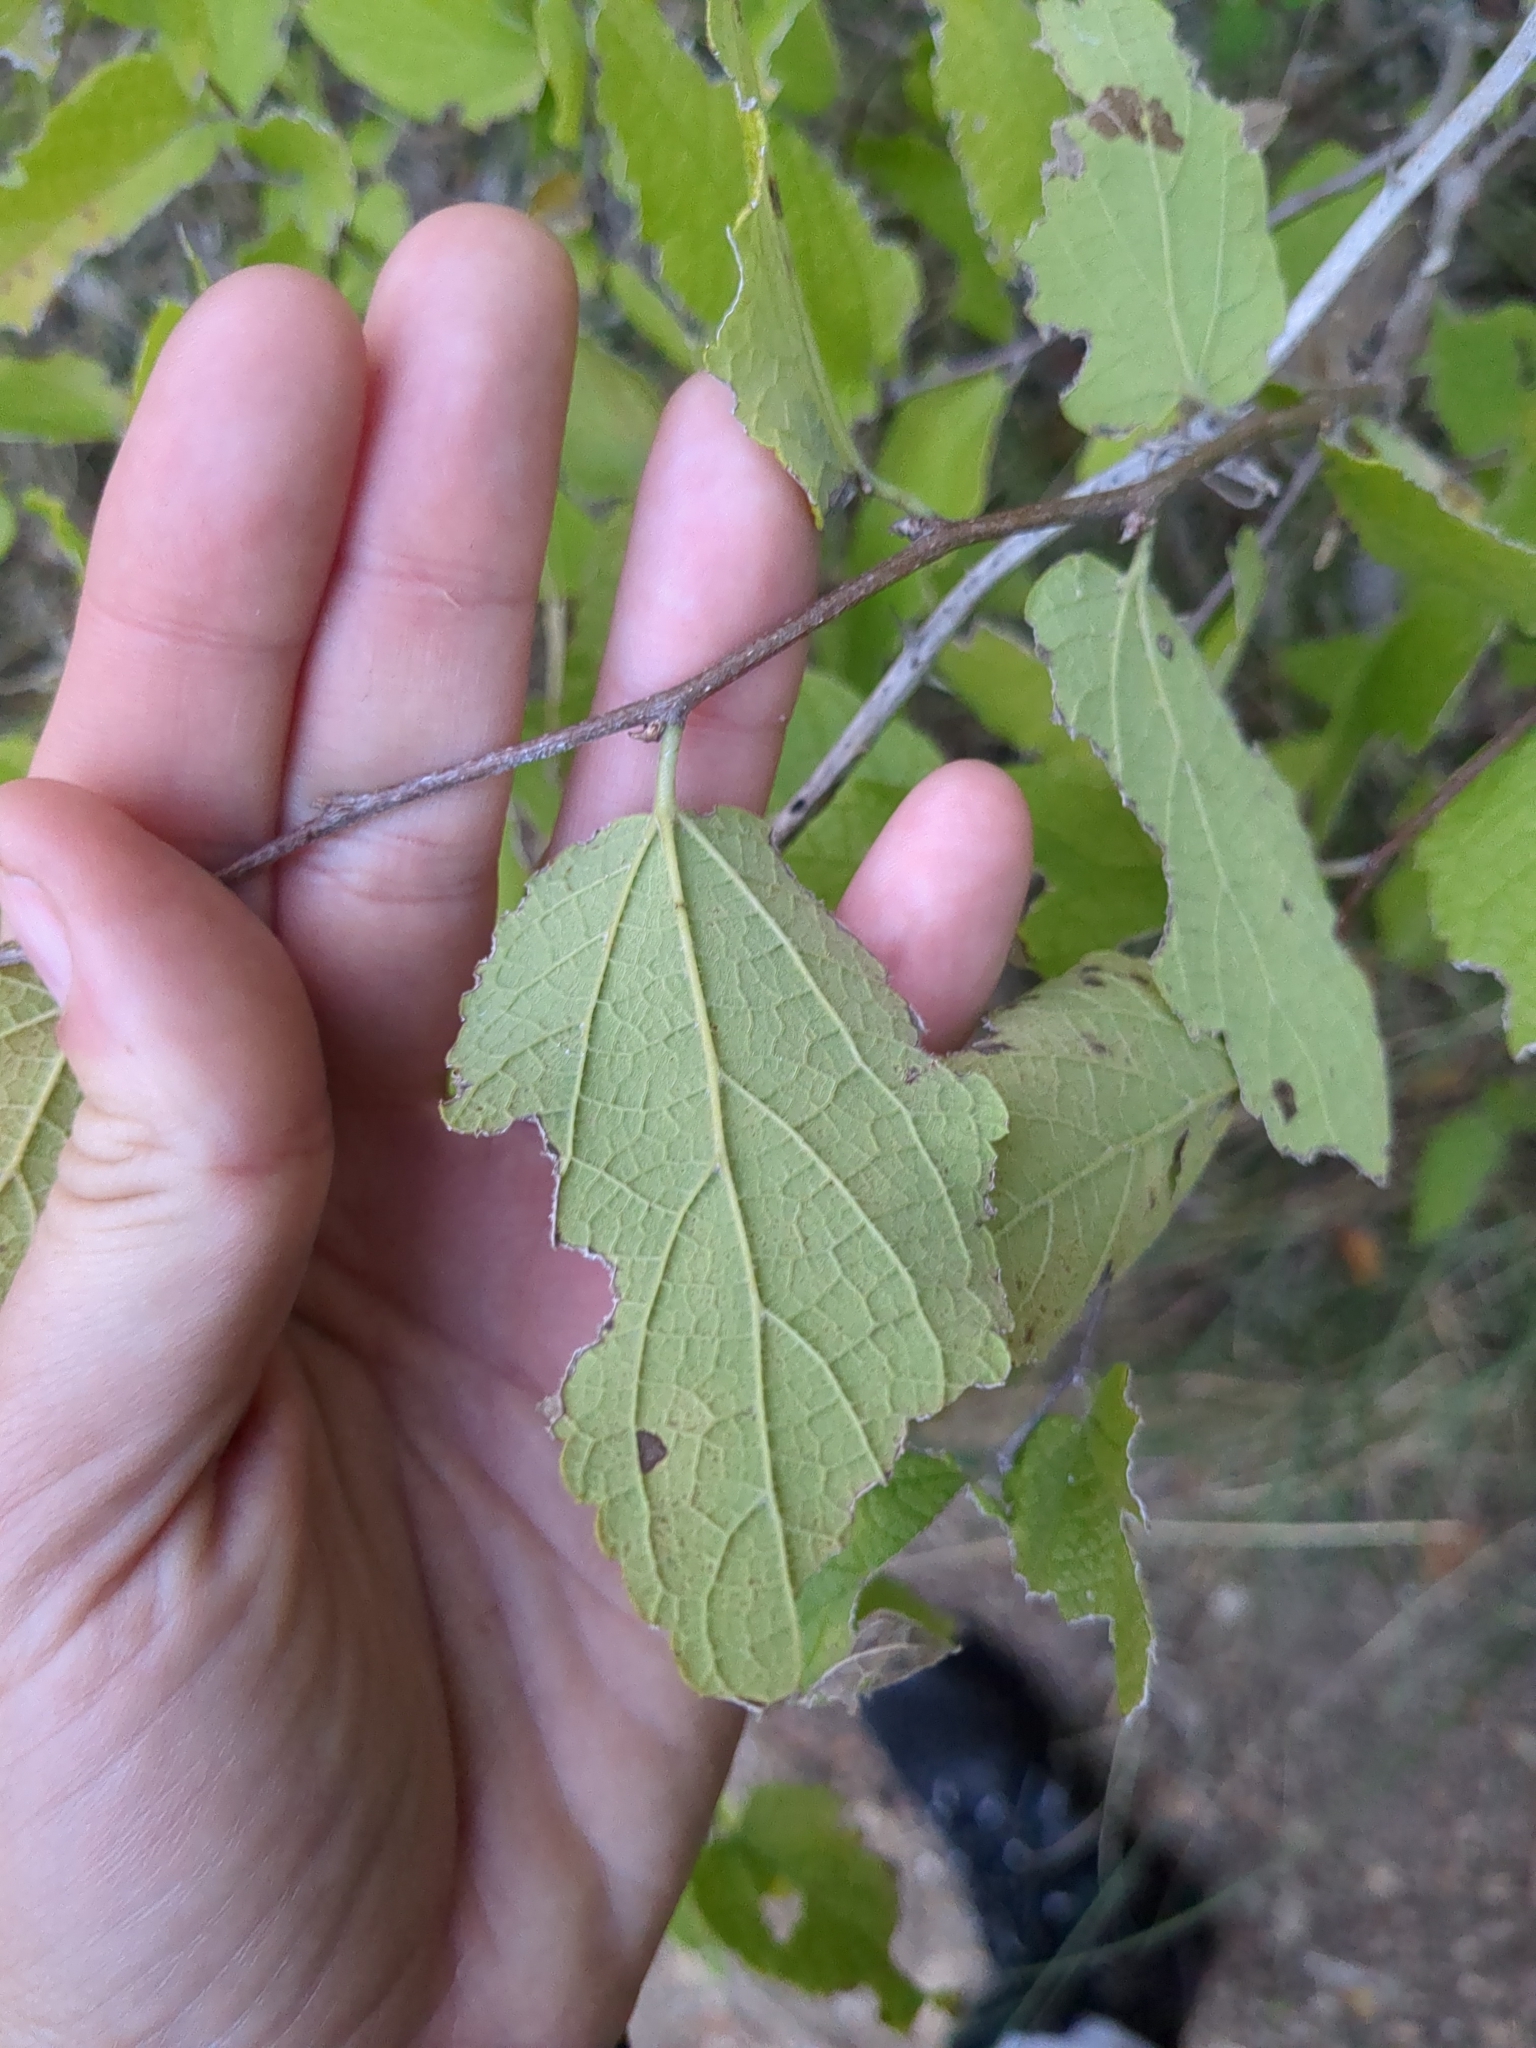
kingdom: Plantae
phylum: Tracheophyta
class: Magnoliopsida
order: Rosales
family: Cannabaceae
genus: Celtis
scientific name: Celtis reticulata
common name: Netleaf hackberry
